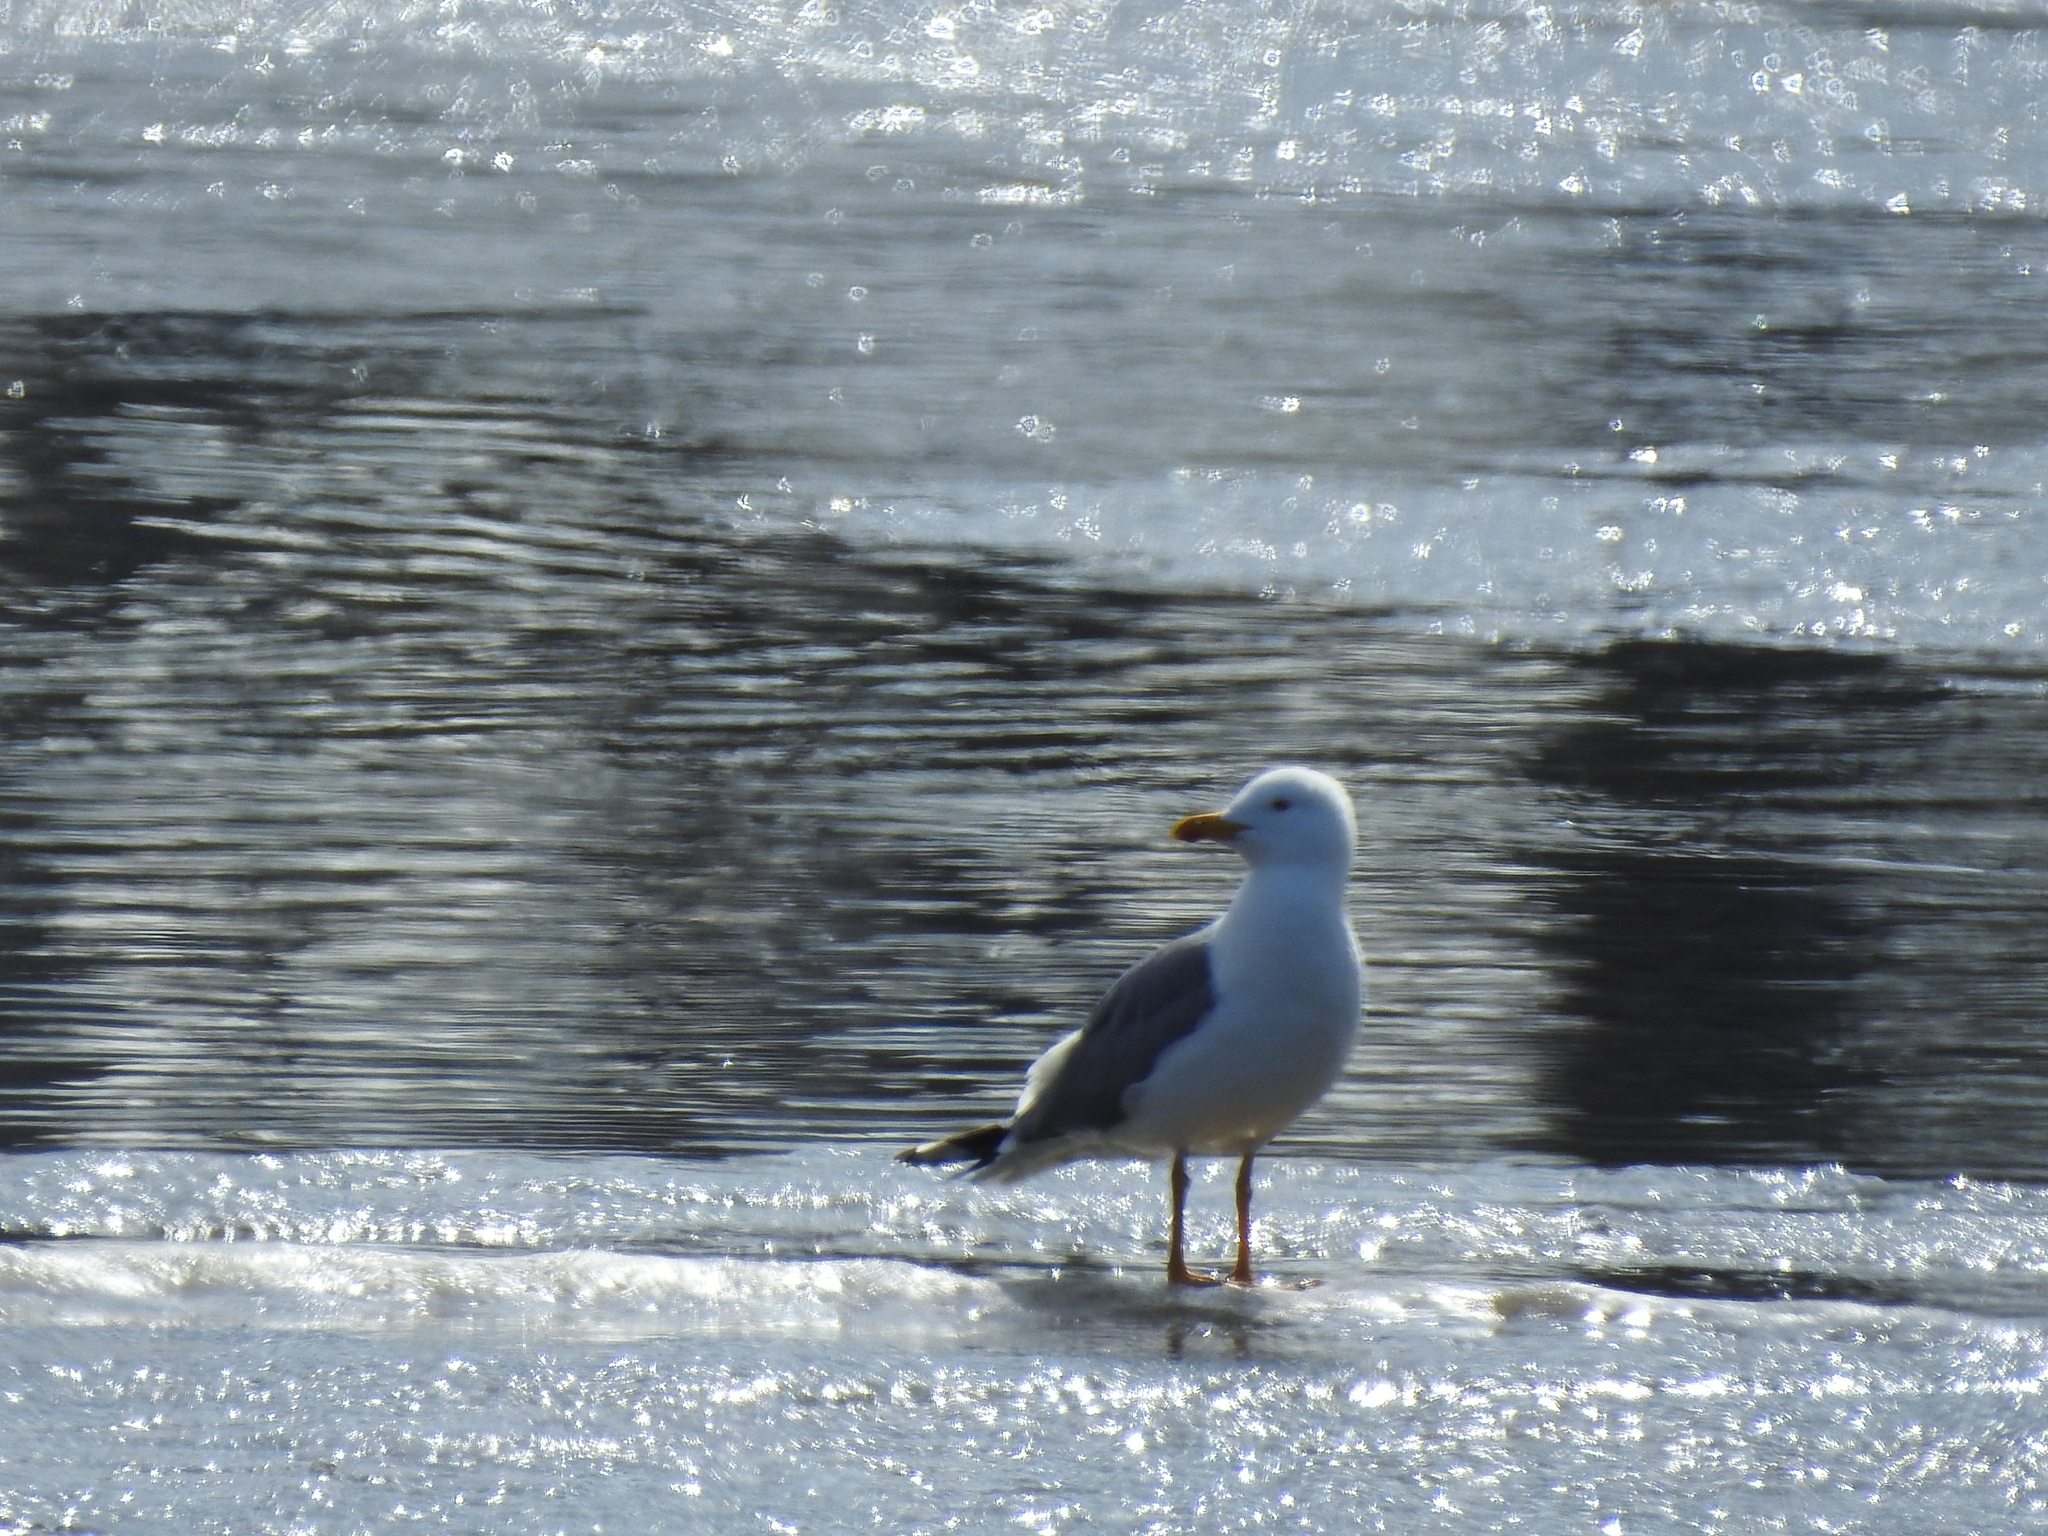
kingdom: Animalia
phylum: Chordata
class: Aves
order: Charadriiformes
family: Laridae
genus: Larus
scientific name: Larus fuscus
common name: Lesser black-backed gull
